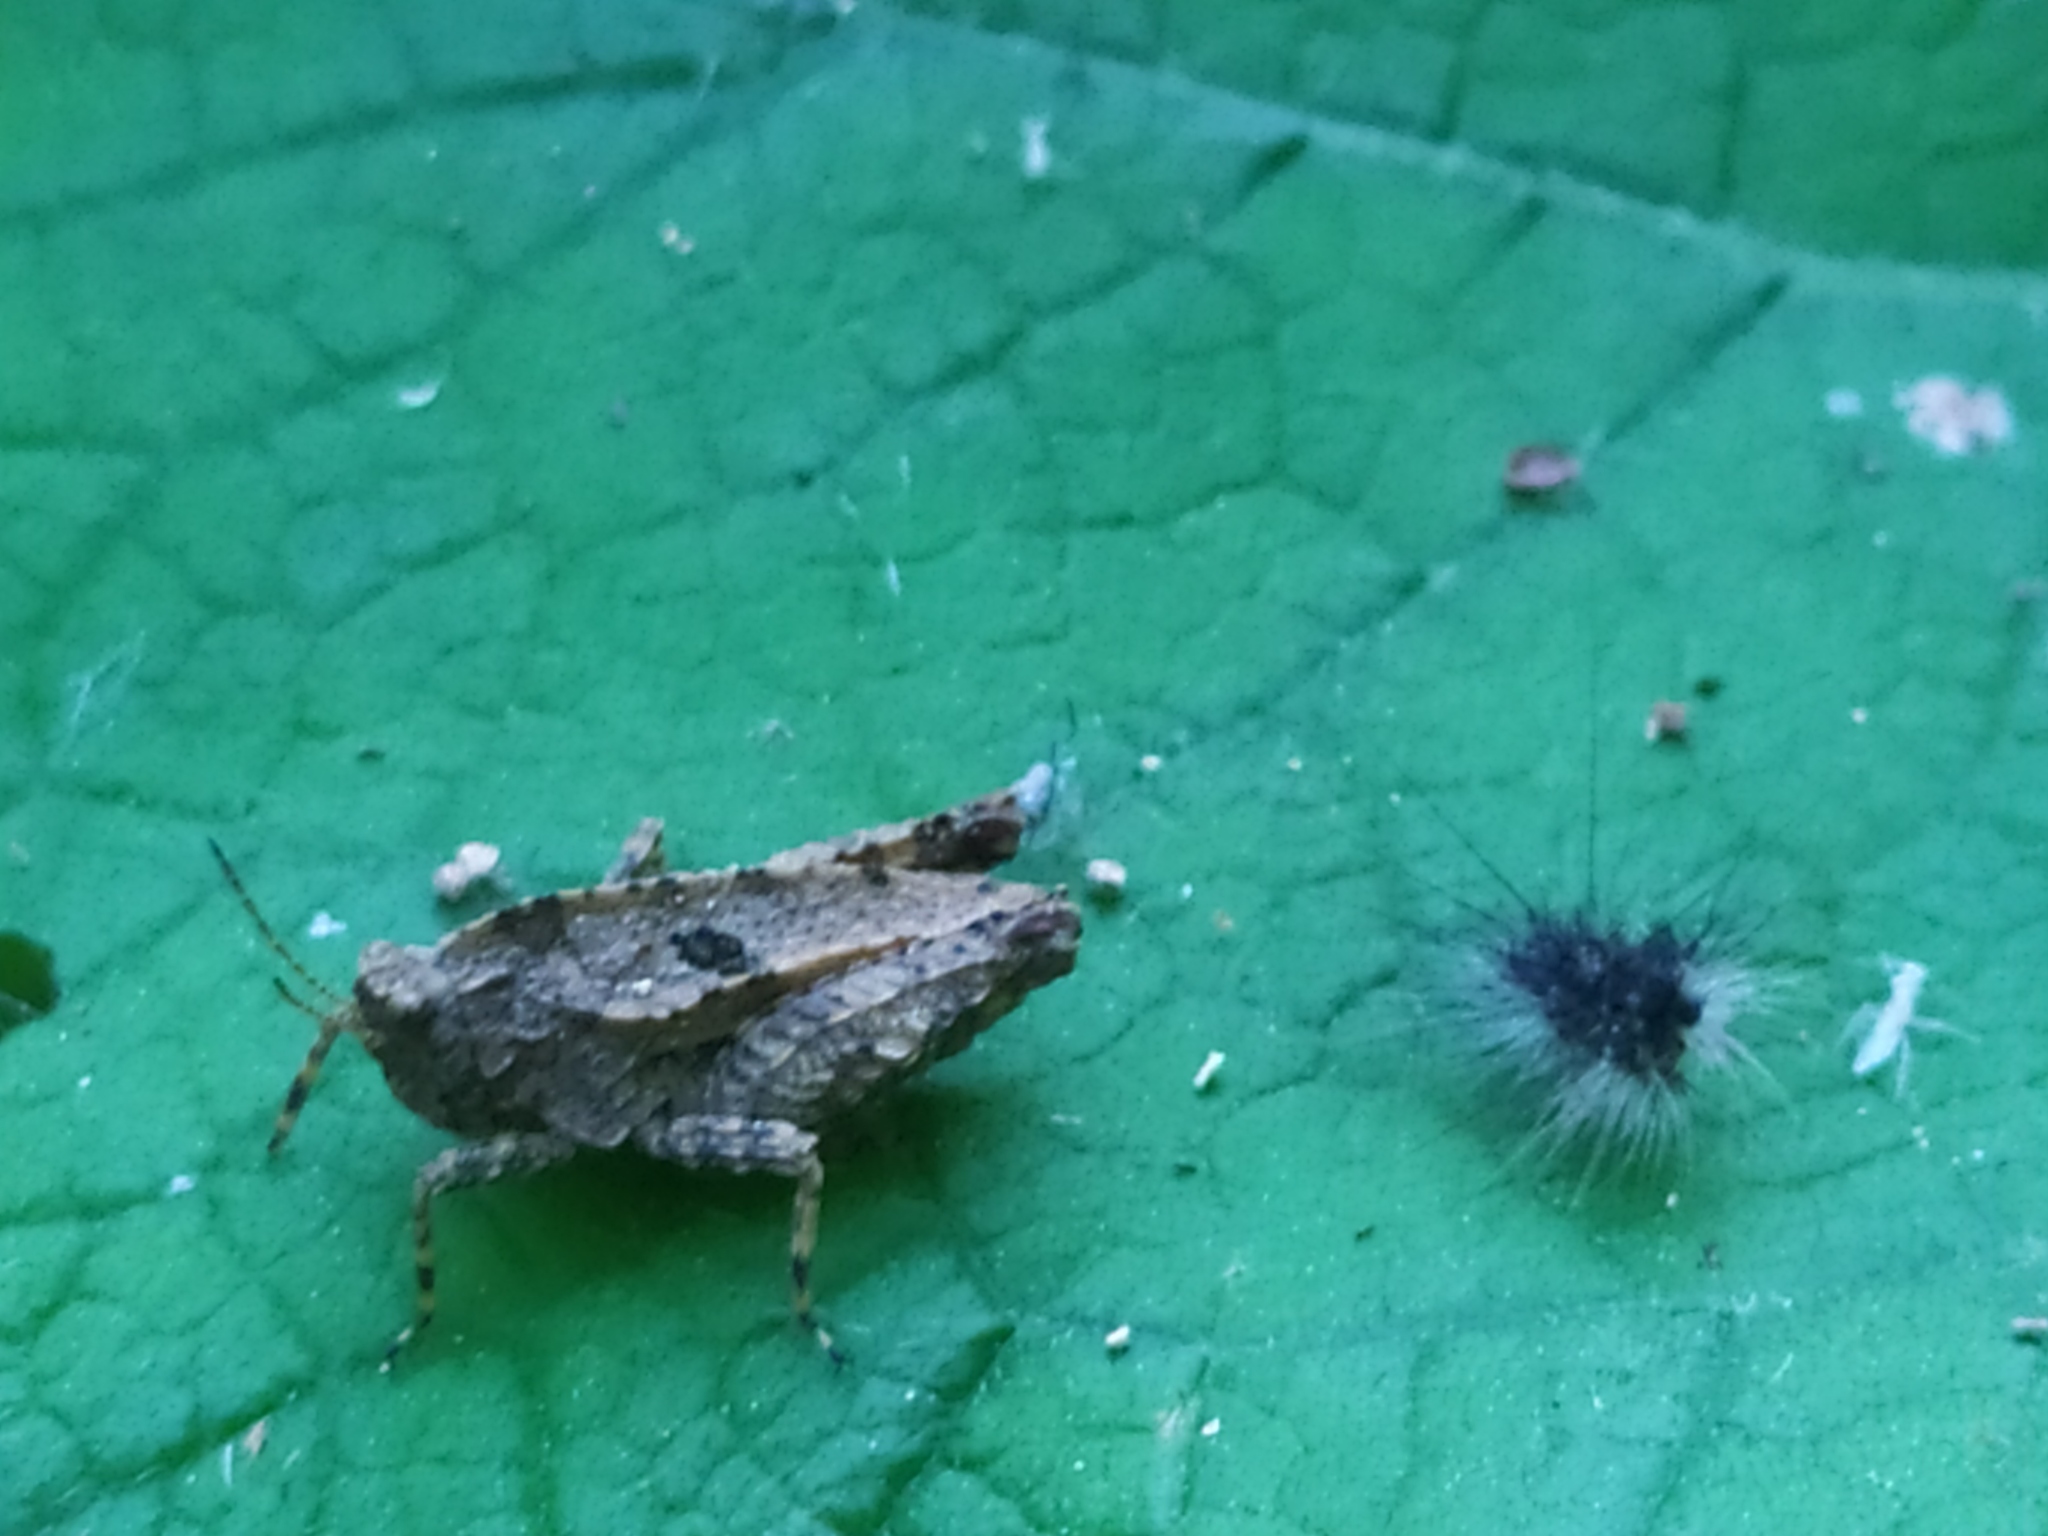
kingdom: Animalia
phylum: Arthropoda
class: Insecta
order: Orthoptera
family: Tetrigidae
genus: Tetrix
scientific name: Tetrix transsylvanica
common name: Transsylvanian wingless groundhopper
